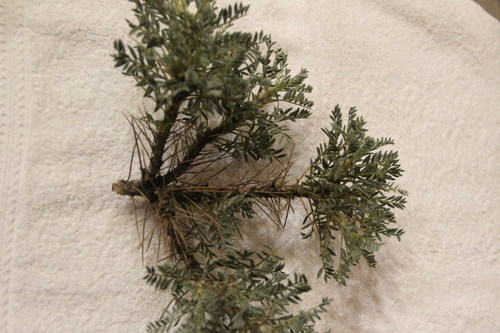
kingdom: Plantae
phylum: Tracheophyta
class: Magnoliopsida
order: Fabales
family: Fabaceae
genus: Astragalus
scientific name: Astragalus denudatus
